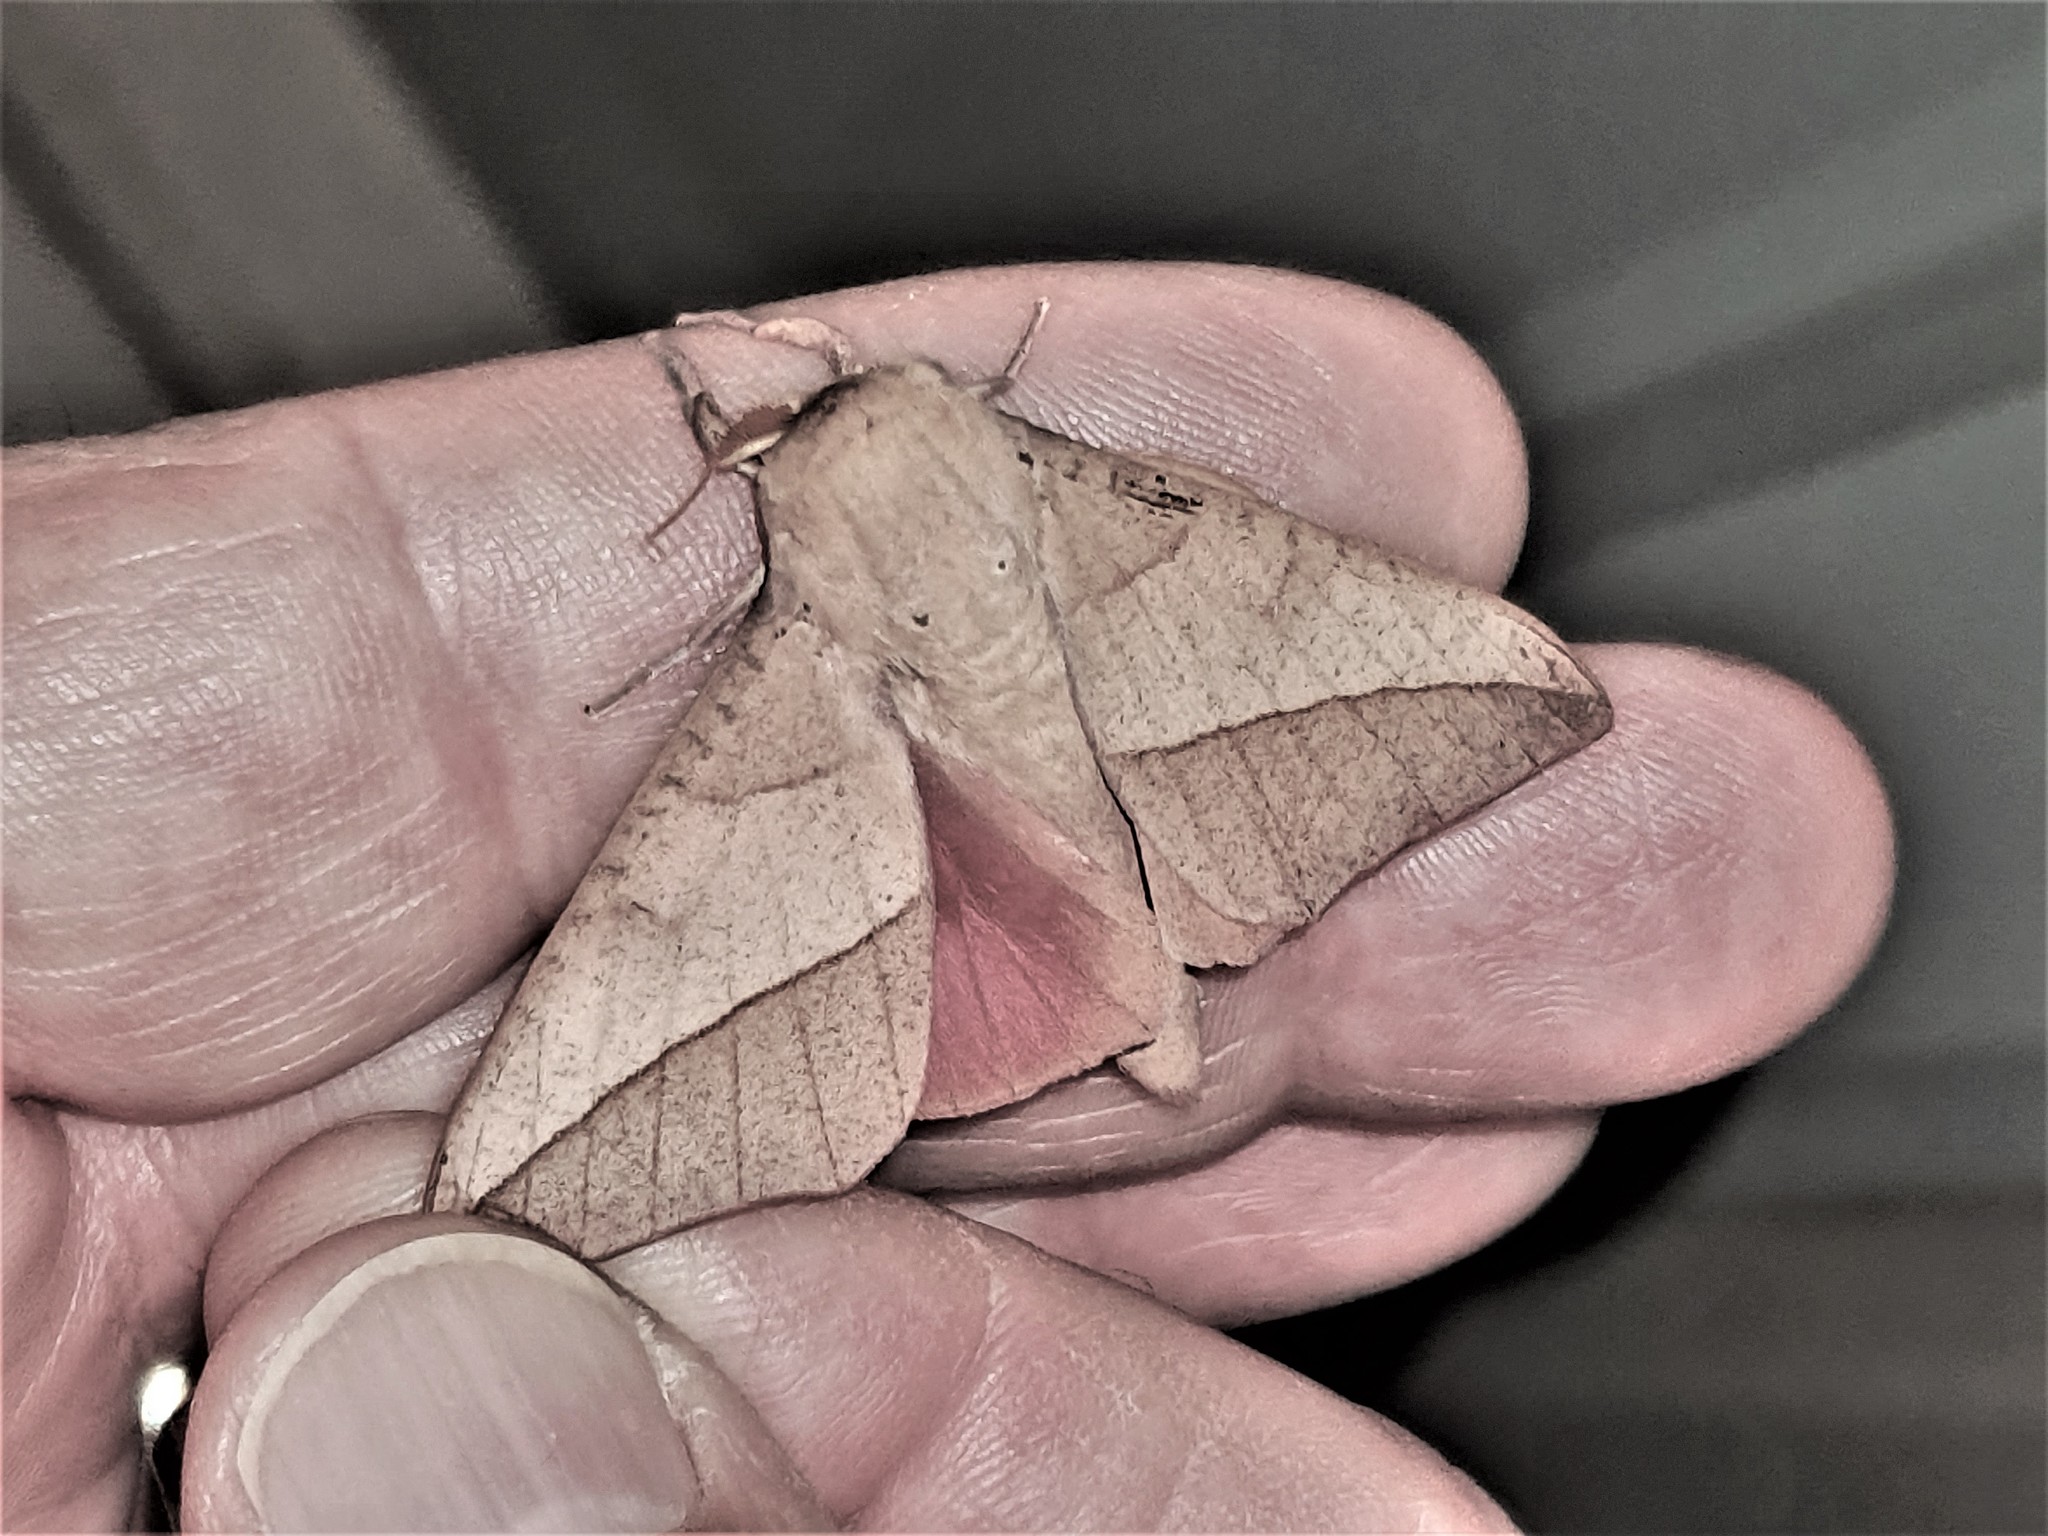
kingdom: Animalia
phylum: Arthropoda
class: Insecta
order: Lepidoptera
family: Saturniidae
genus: Adeloneivaia
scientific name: Adeloneivaia acuta
